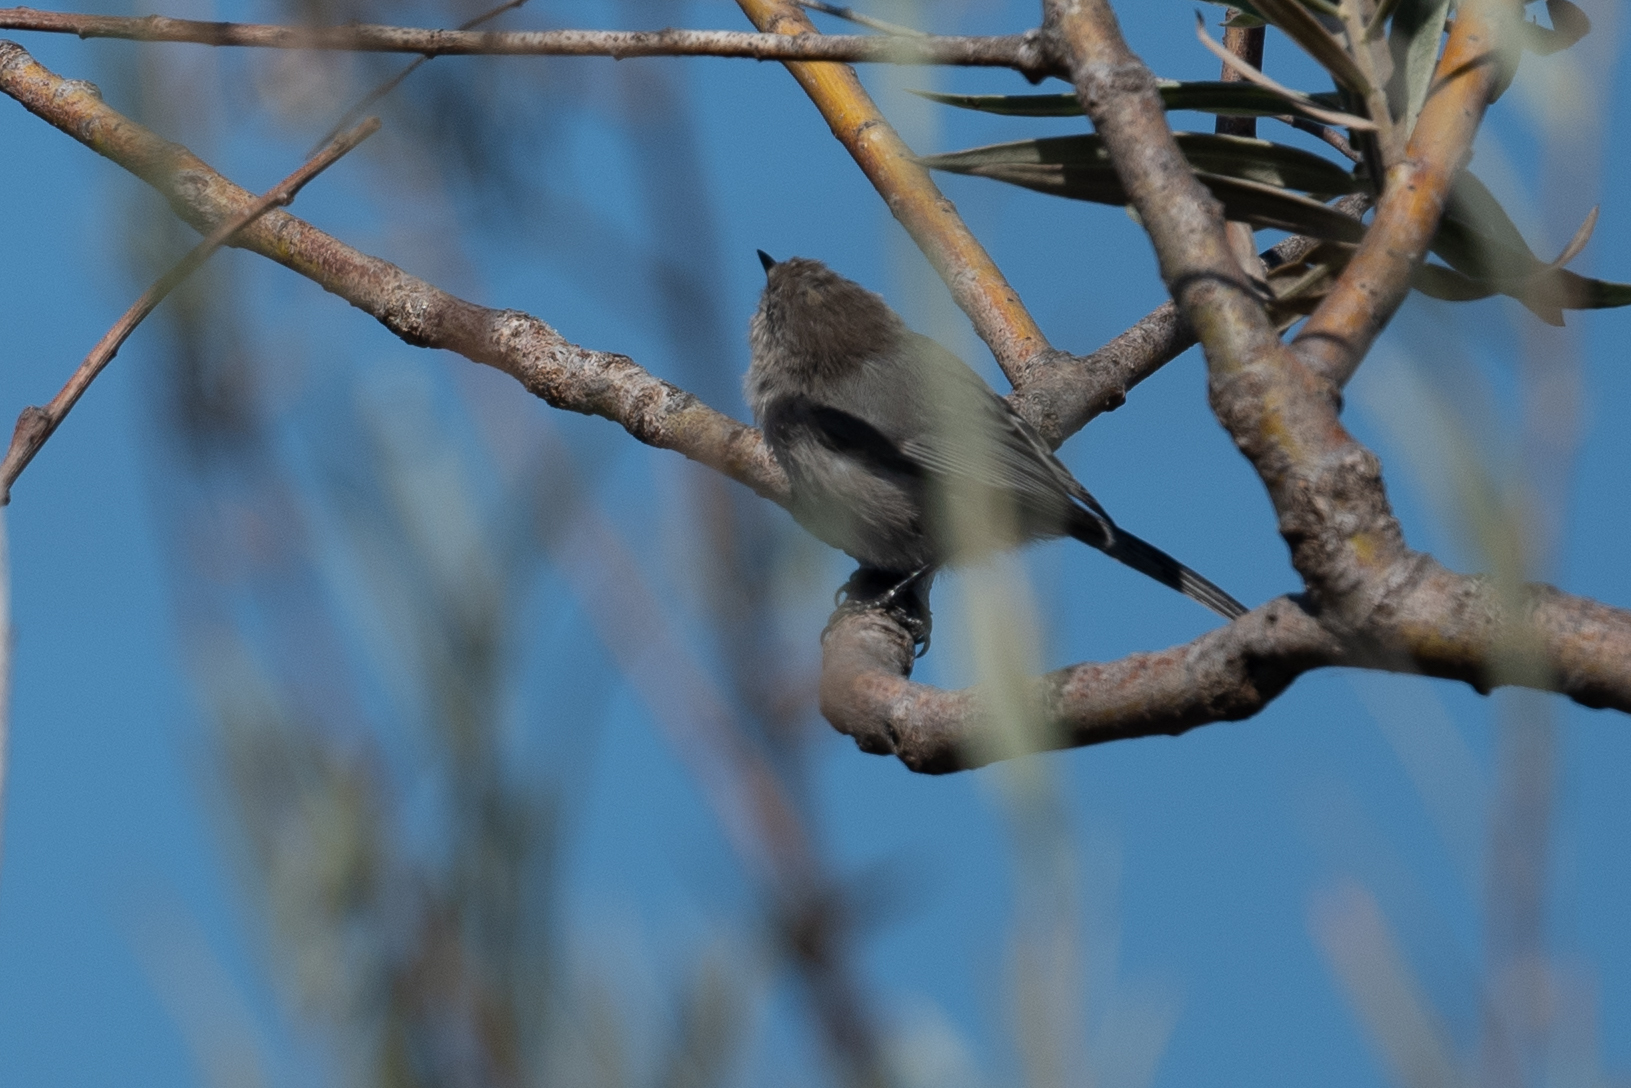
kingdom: Animalia
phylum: Chordata
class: Aves
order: Passeriformes
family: Aegithalidae
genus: Psaltriparus
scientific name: Psaltriparus minimus
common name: American bushtit
